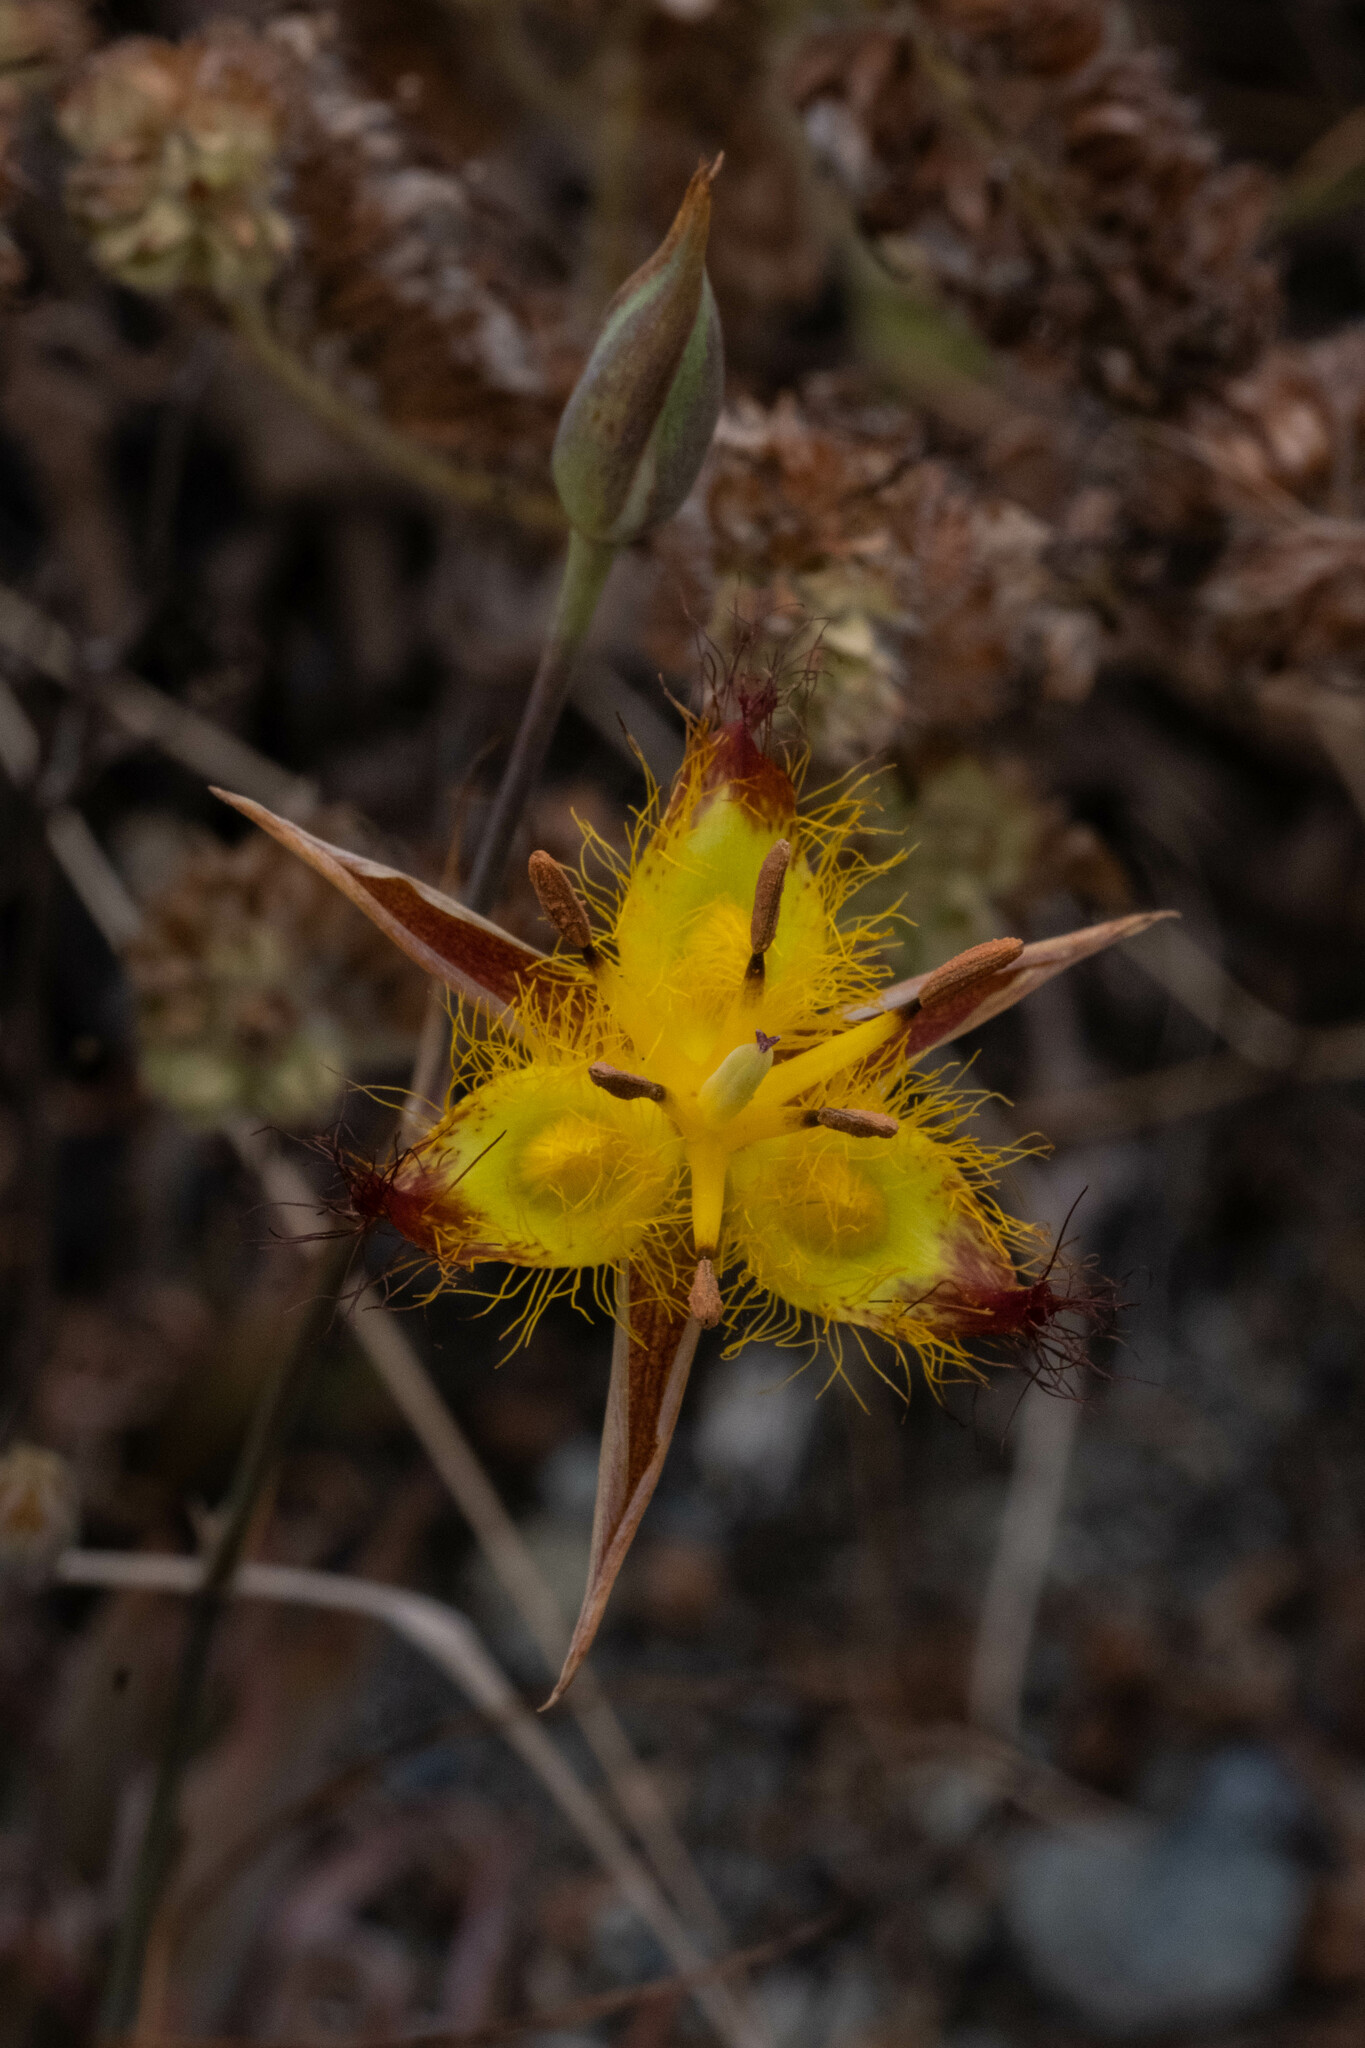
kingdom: Plantae
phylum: Tracheophyta
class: Liliopsida
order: Liliales
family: Liliaceae
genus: Calochortus
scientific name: Calochortus obispoensis
